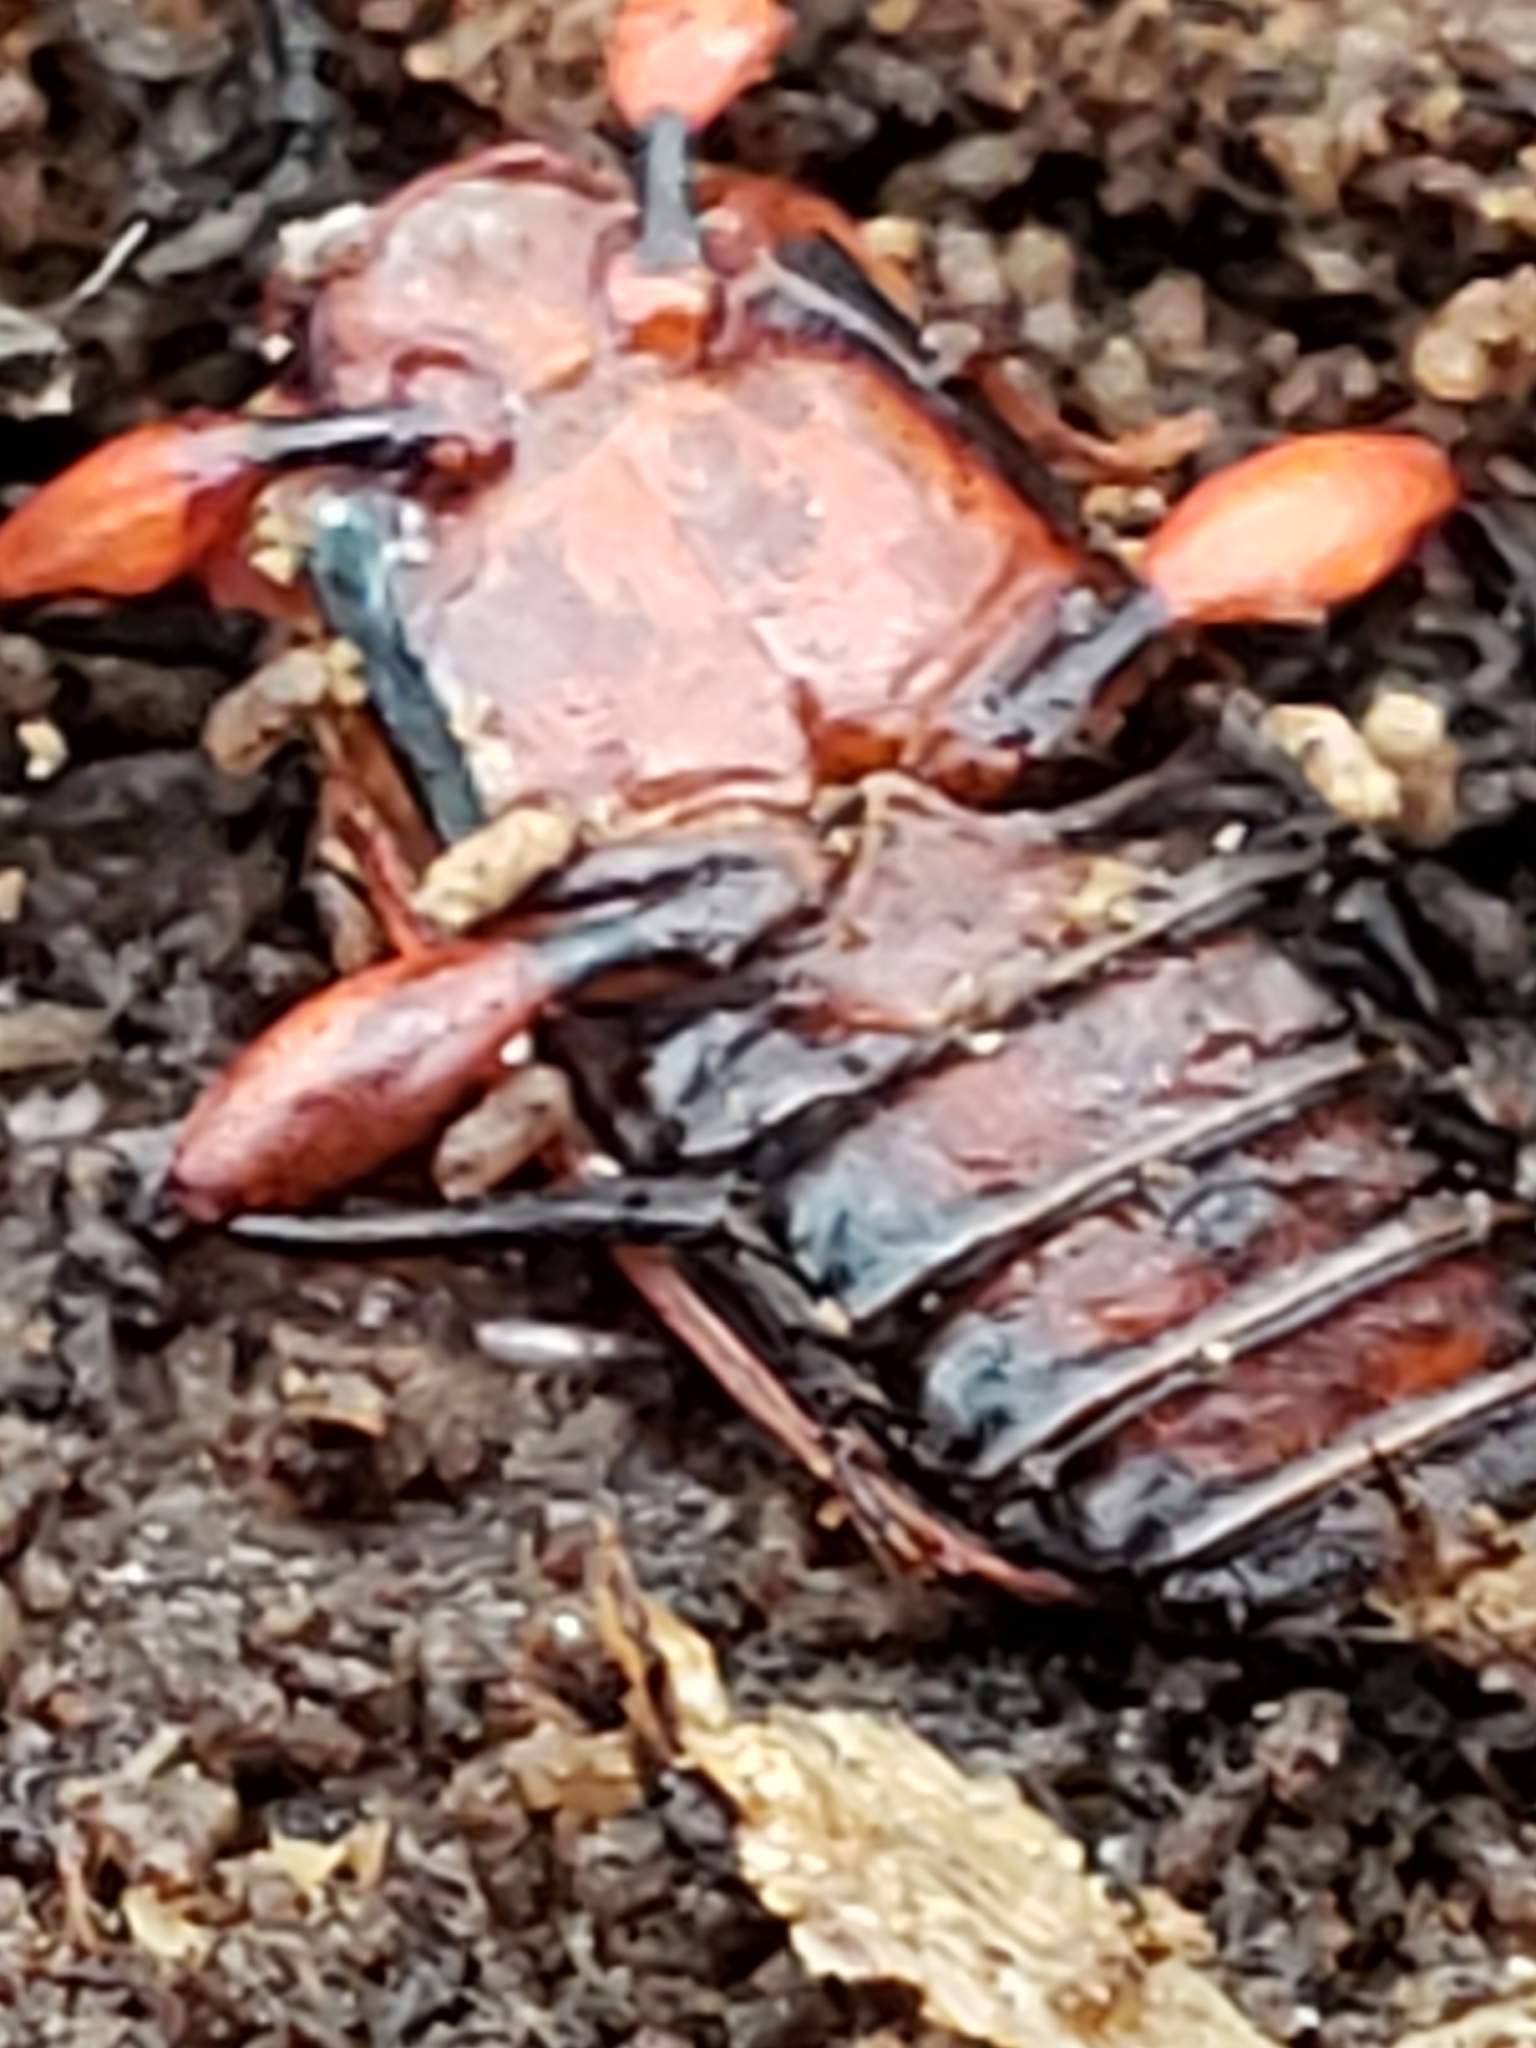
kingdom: Animalia
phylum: Arthropoda
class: Insecta
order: Coleoptera
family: Cucujidae
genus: Cucujus
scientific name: Cucujus clavipes
